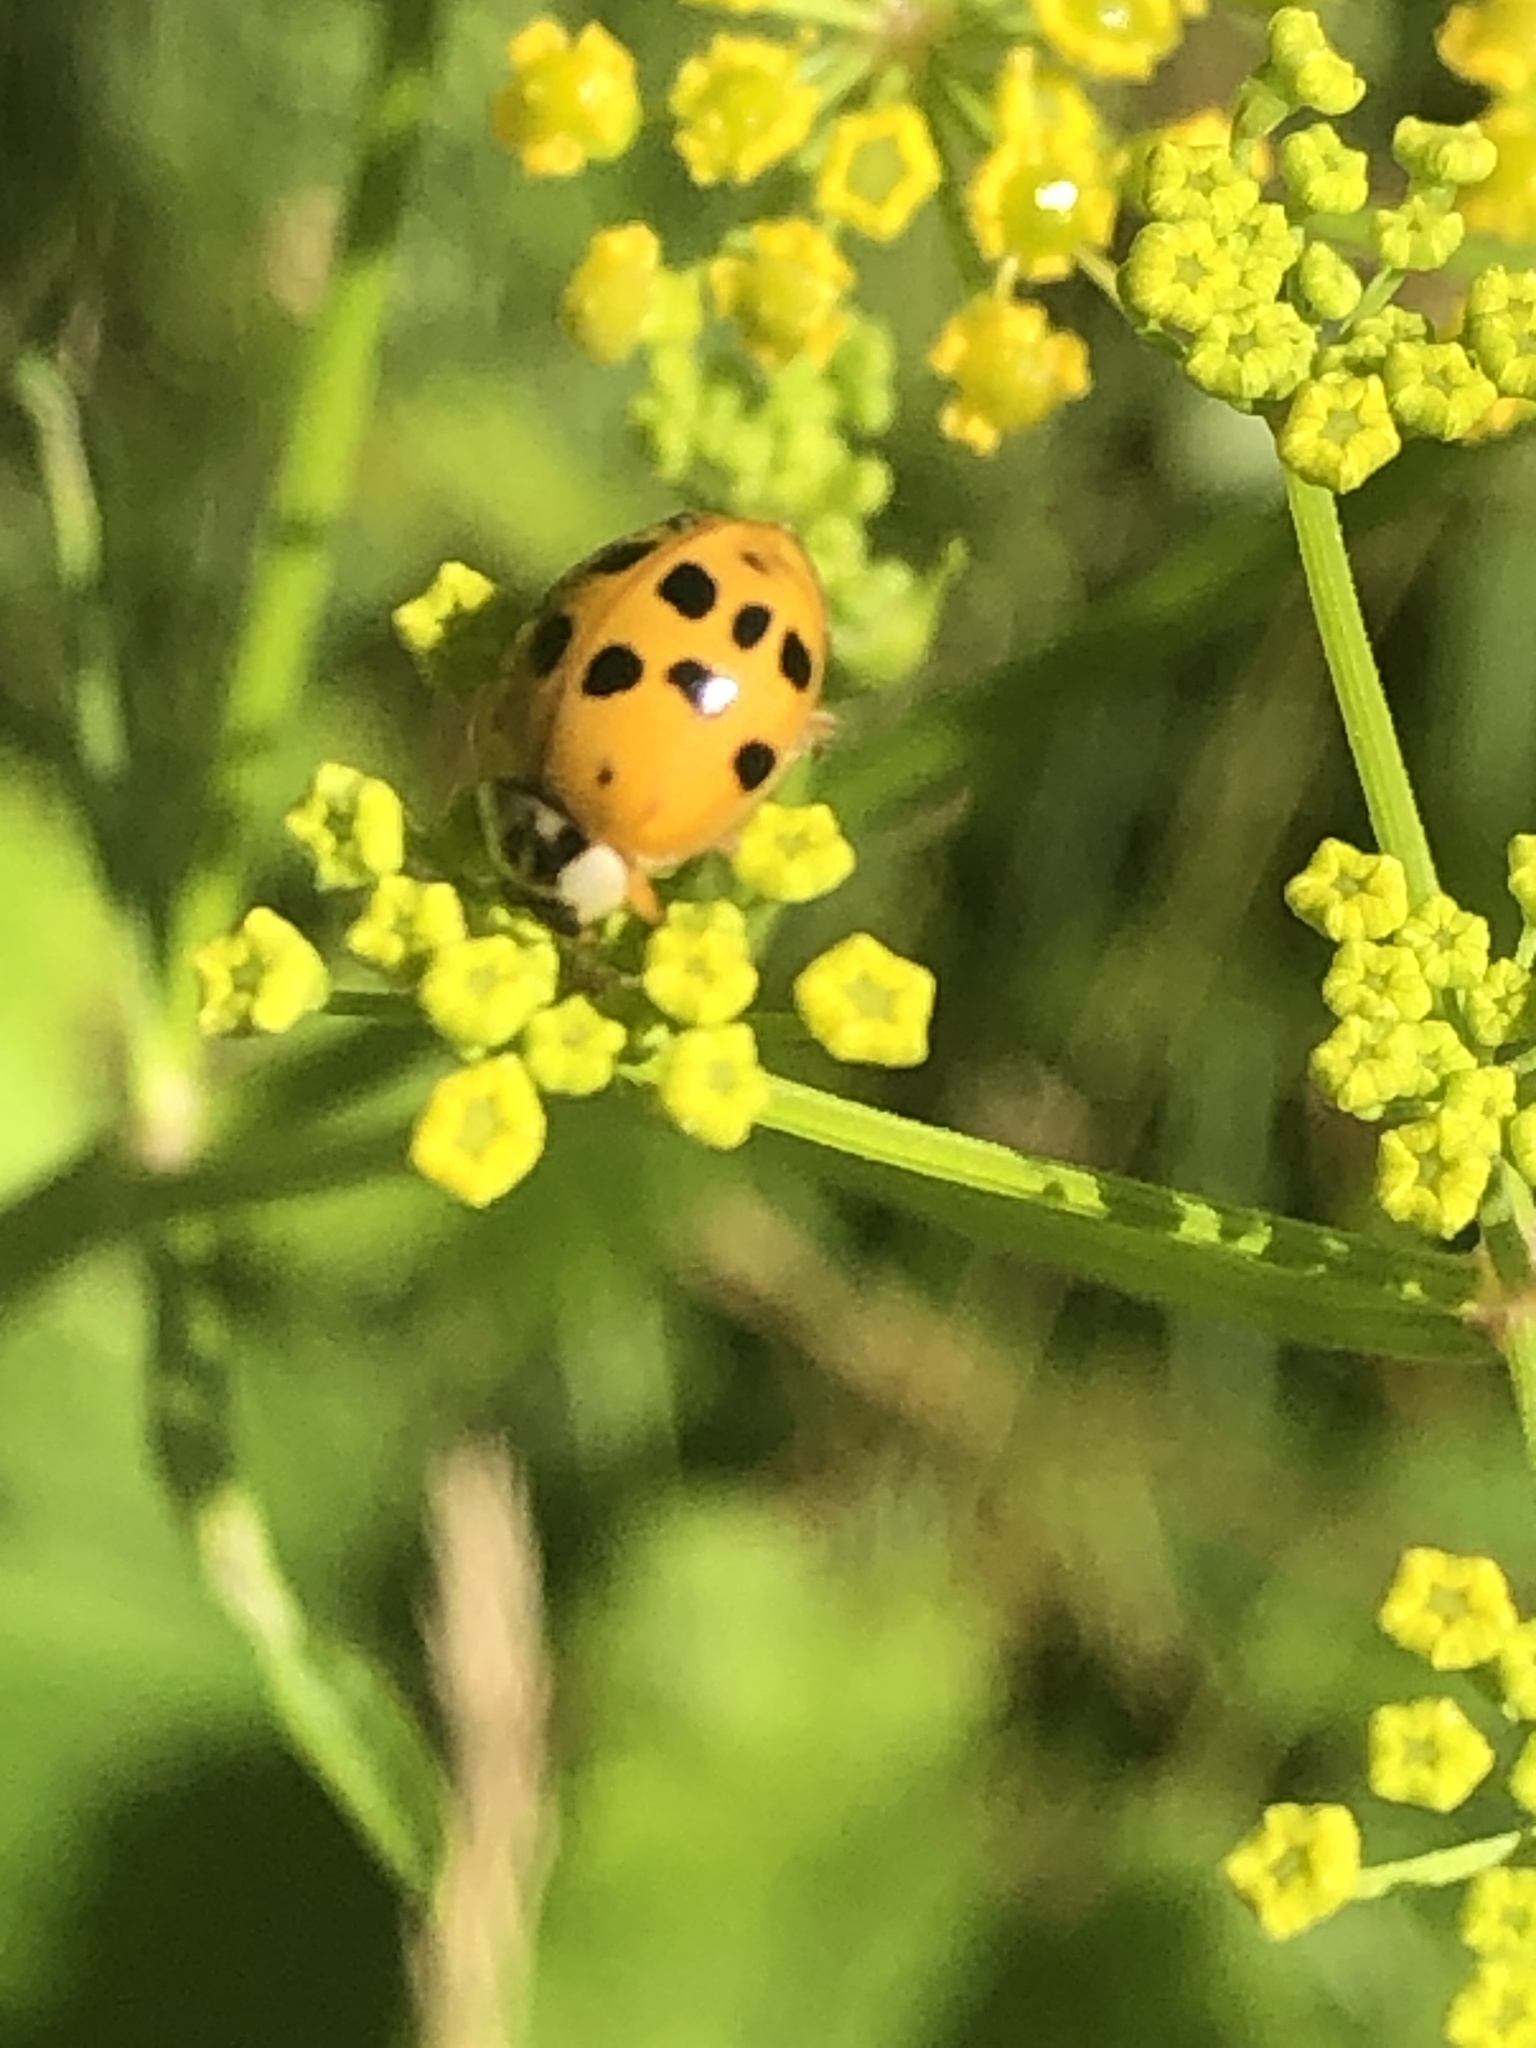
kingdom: Animalia
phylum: Arthropoda
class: Insecta
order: Coleoptera
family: Coccinellidae
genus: Harmonia
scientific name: Harmonia axyridis
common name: Harlequin ladybird
